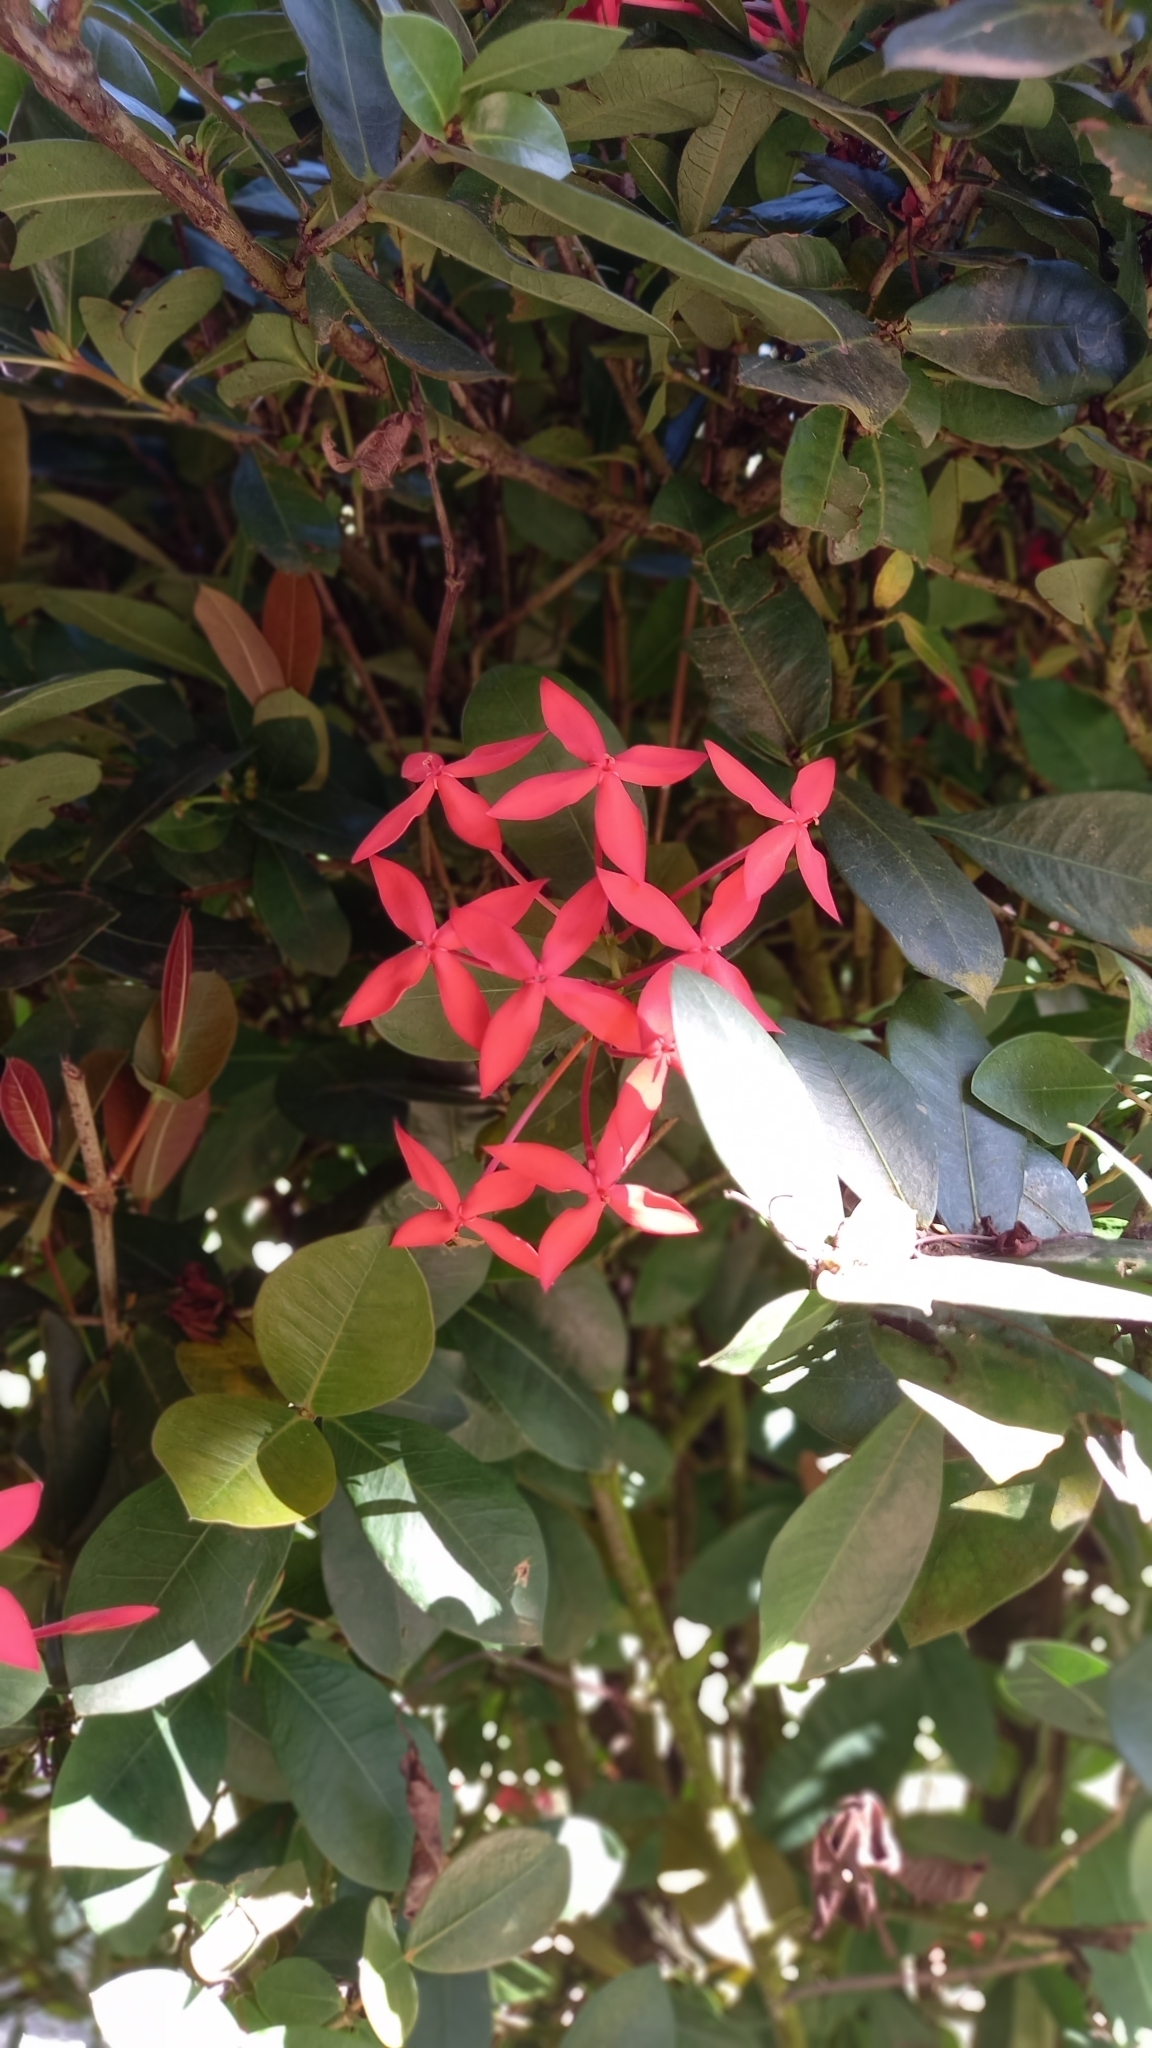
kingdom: Plantae
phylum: Tracheophyta
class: Magnoliopsida
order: Gentianales
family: Rubiaceae
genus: Ixora
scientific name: Ixora coccinea
